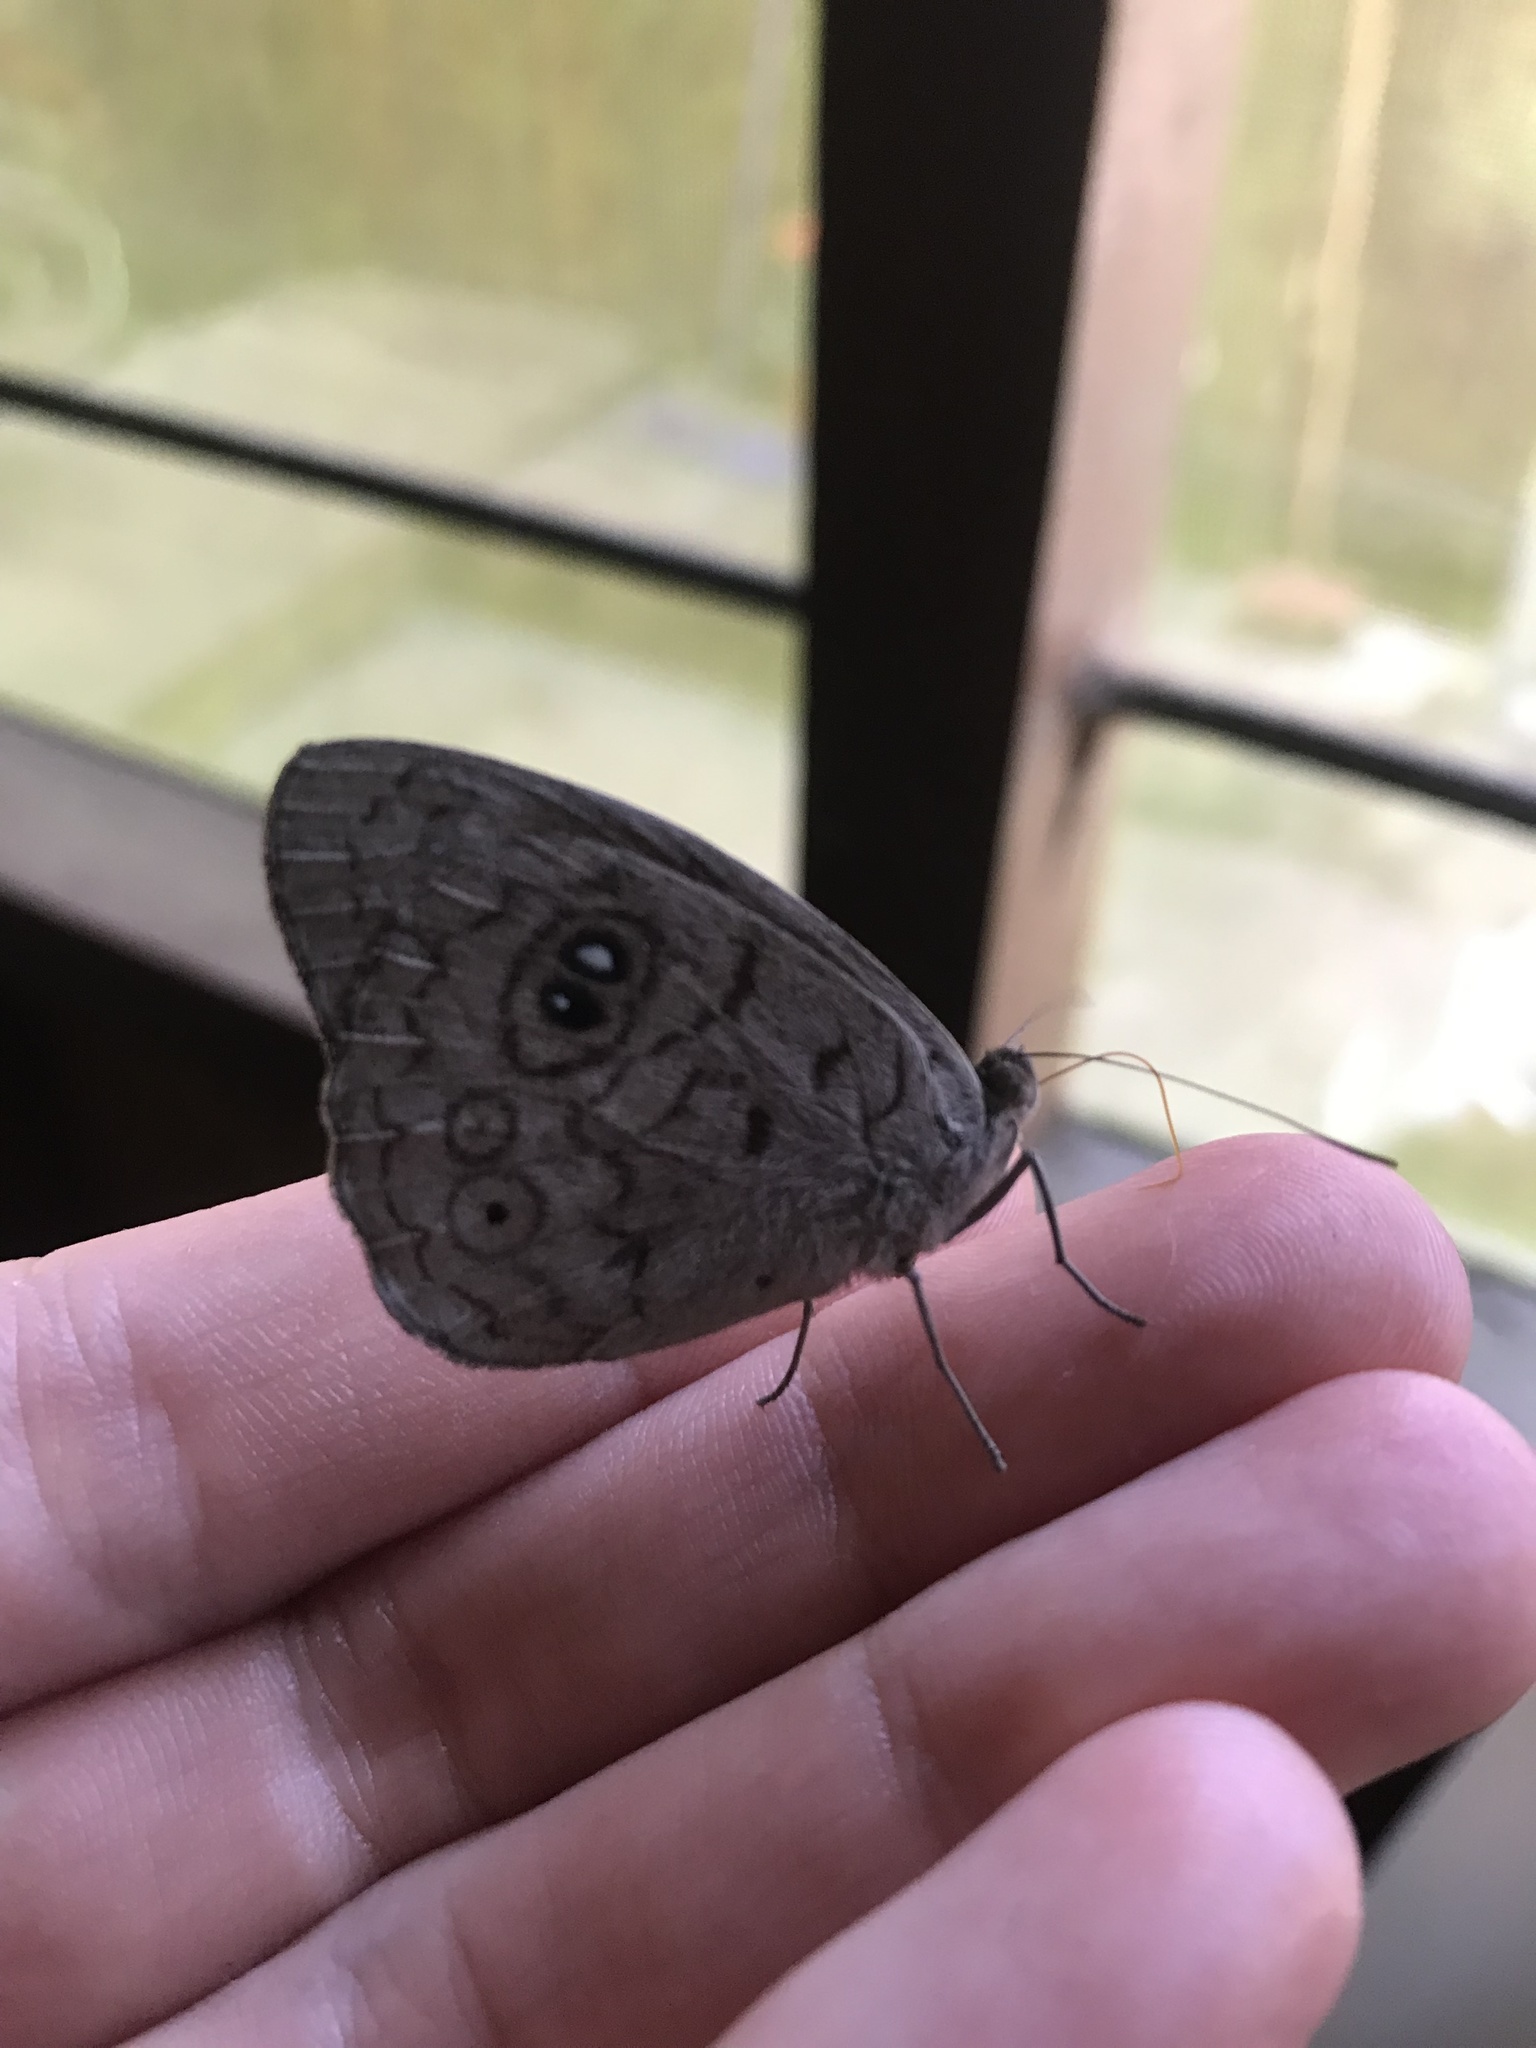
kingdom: Animalia
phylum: Arthropoda
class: Insecta
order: Lepidoptera
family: Nymphalidae
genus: Eunica
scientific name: Eunica veronica
